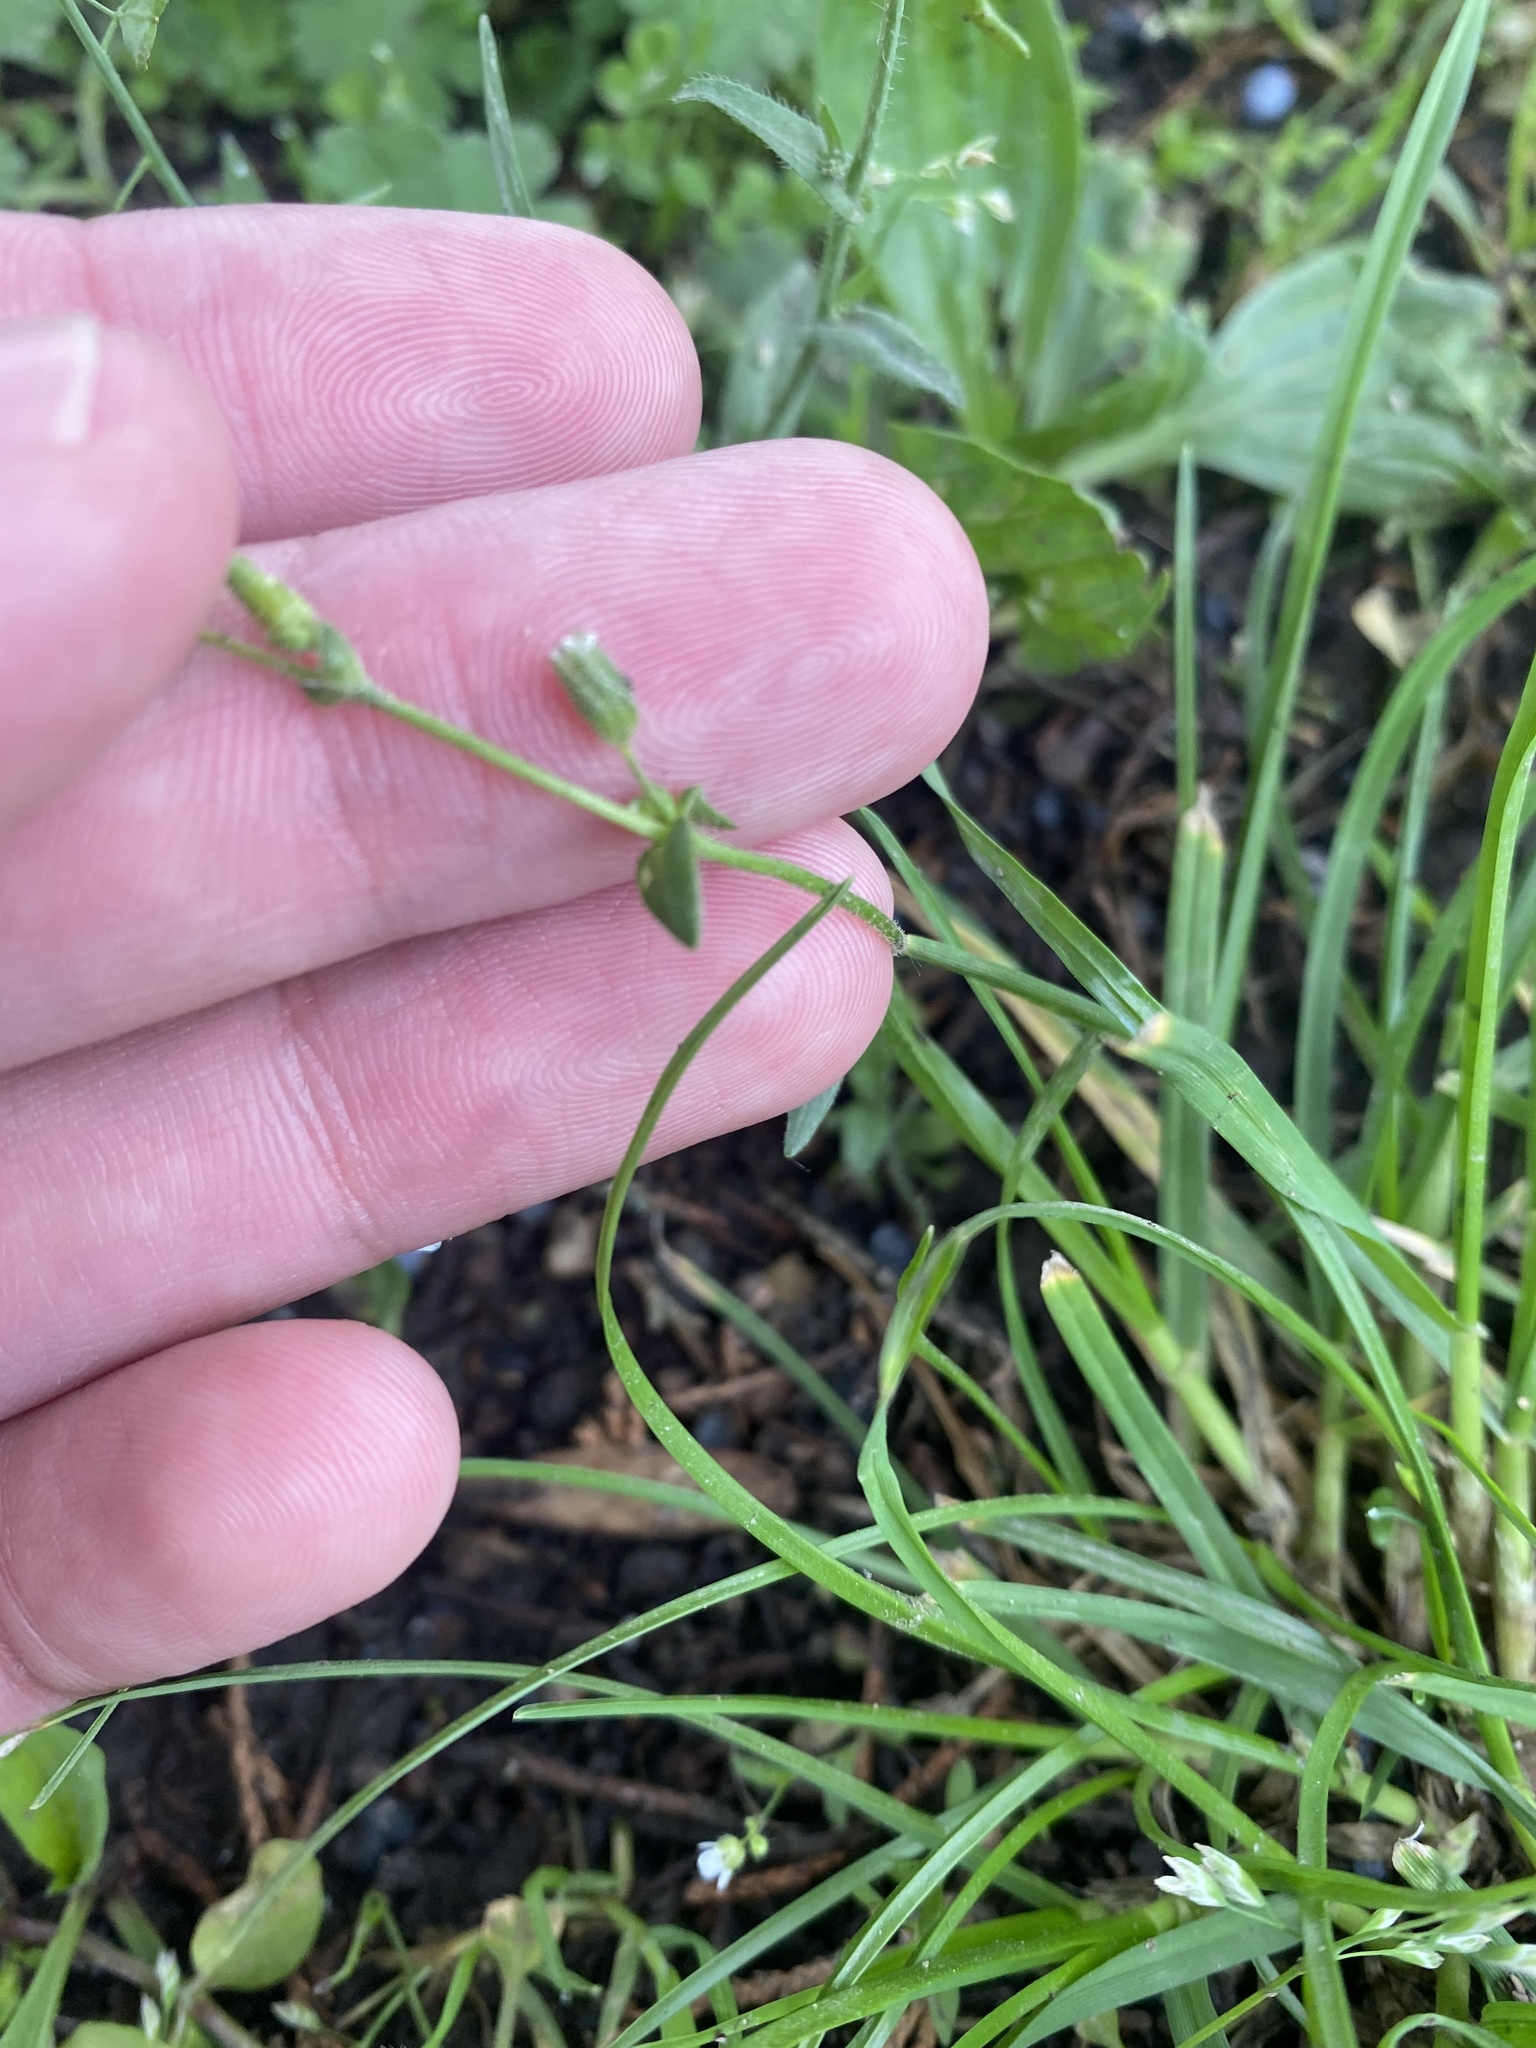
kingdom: Plantae
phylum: Tracheophyta
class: Magnoliopsida
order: Caryophyllales
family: Caryophyllaceae
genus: Dichodon
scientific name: Dichodon viscidum
